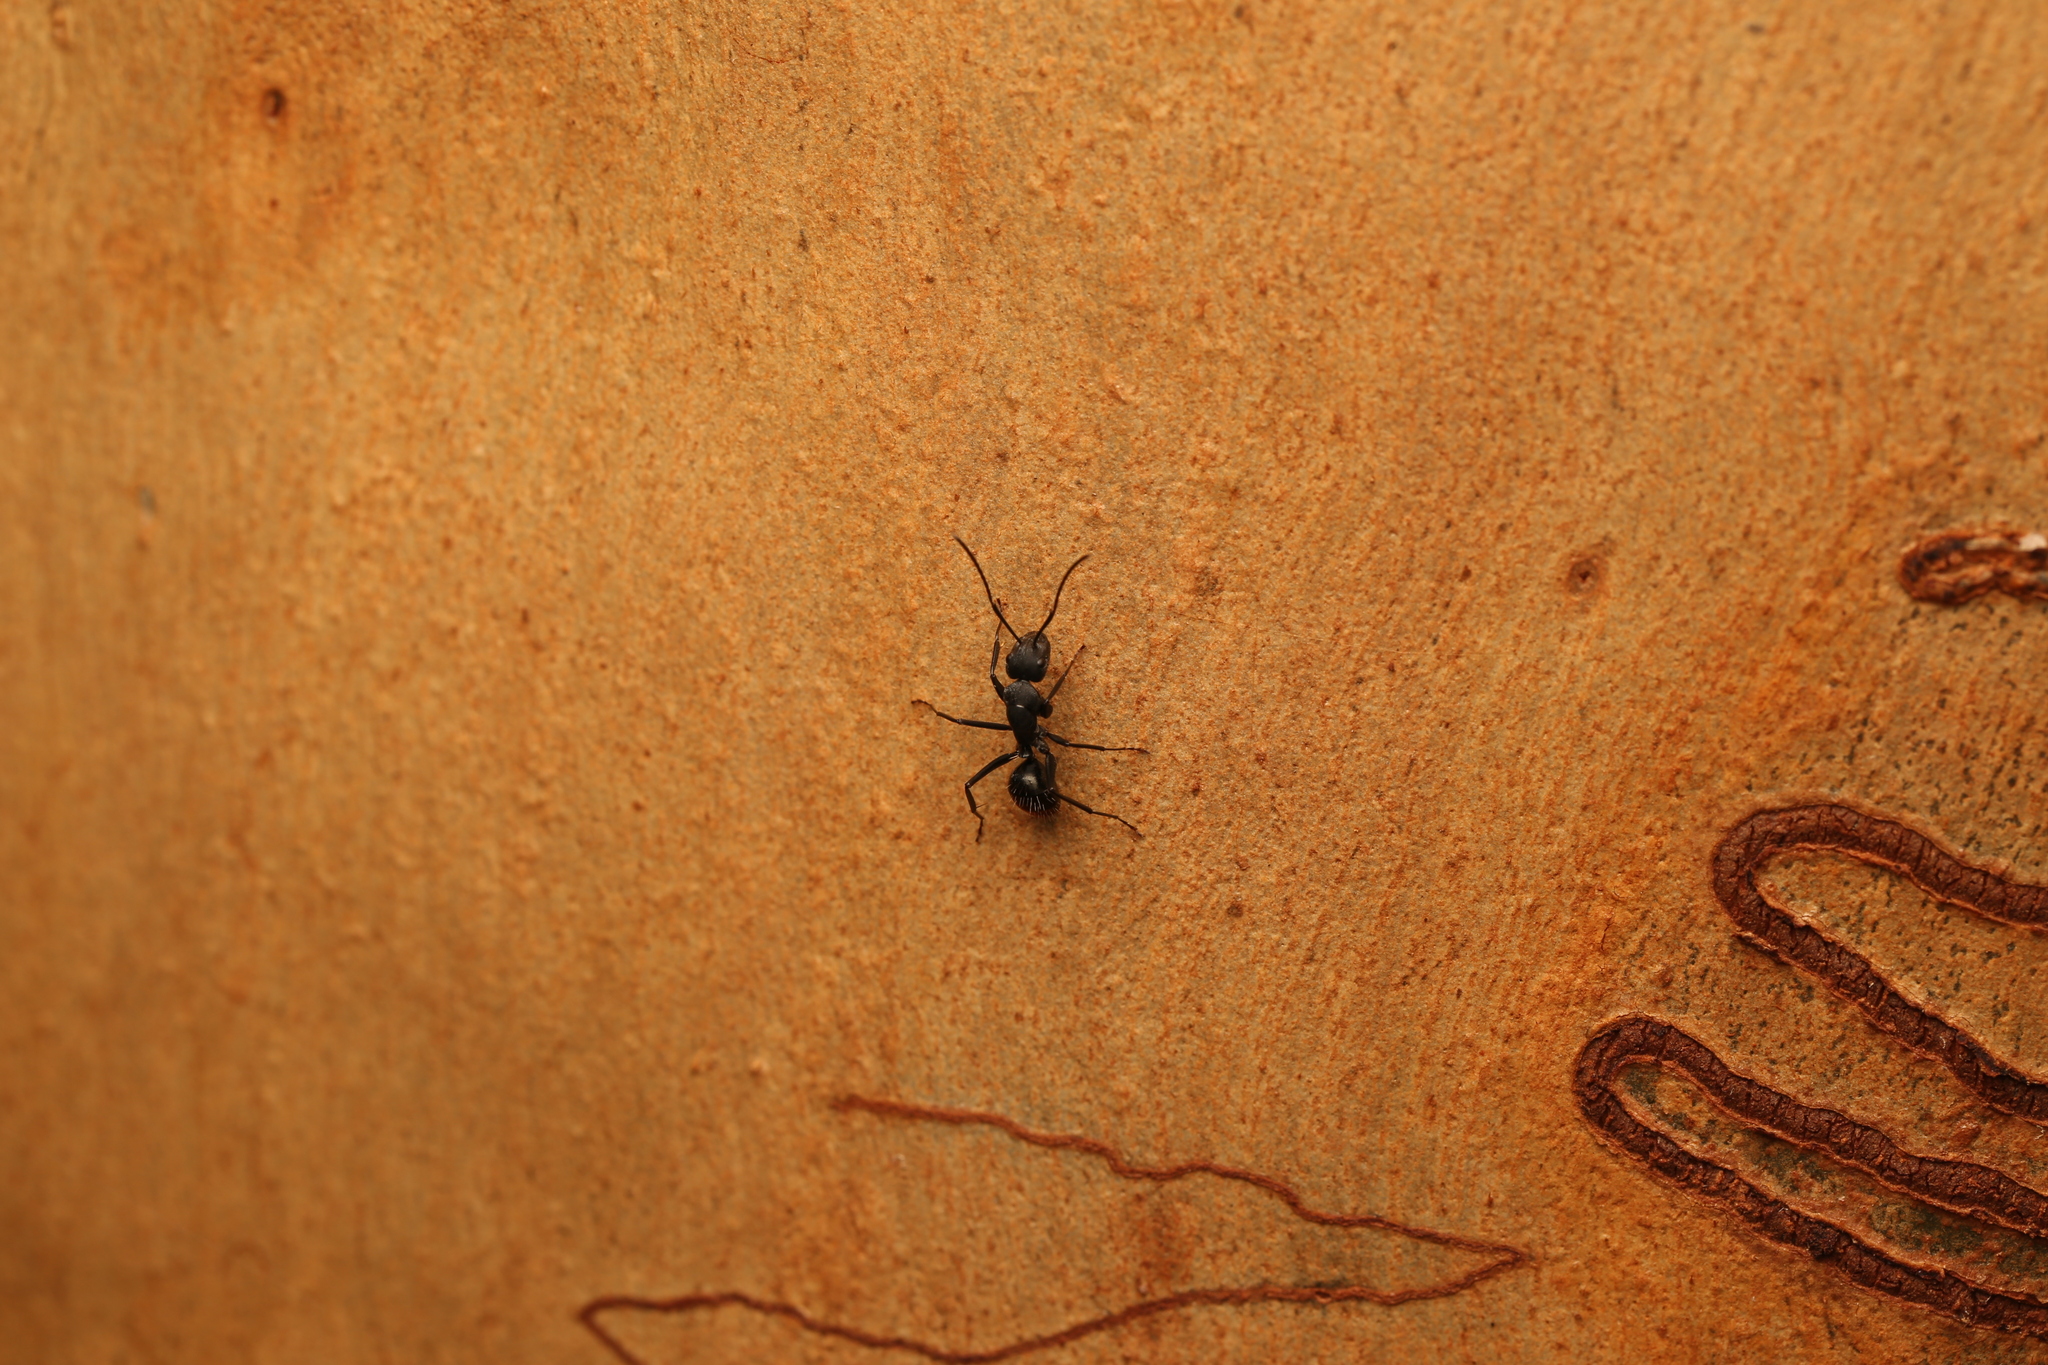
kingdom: Animalia
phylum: Arthropoda
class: Insecta
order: Hymenoptera
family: Formicidae
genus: Camponotus
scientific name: Camponotus aeneopilosus
